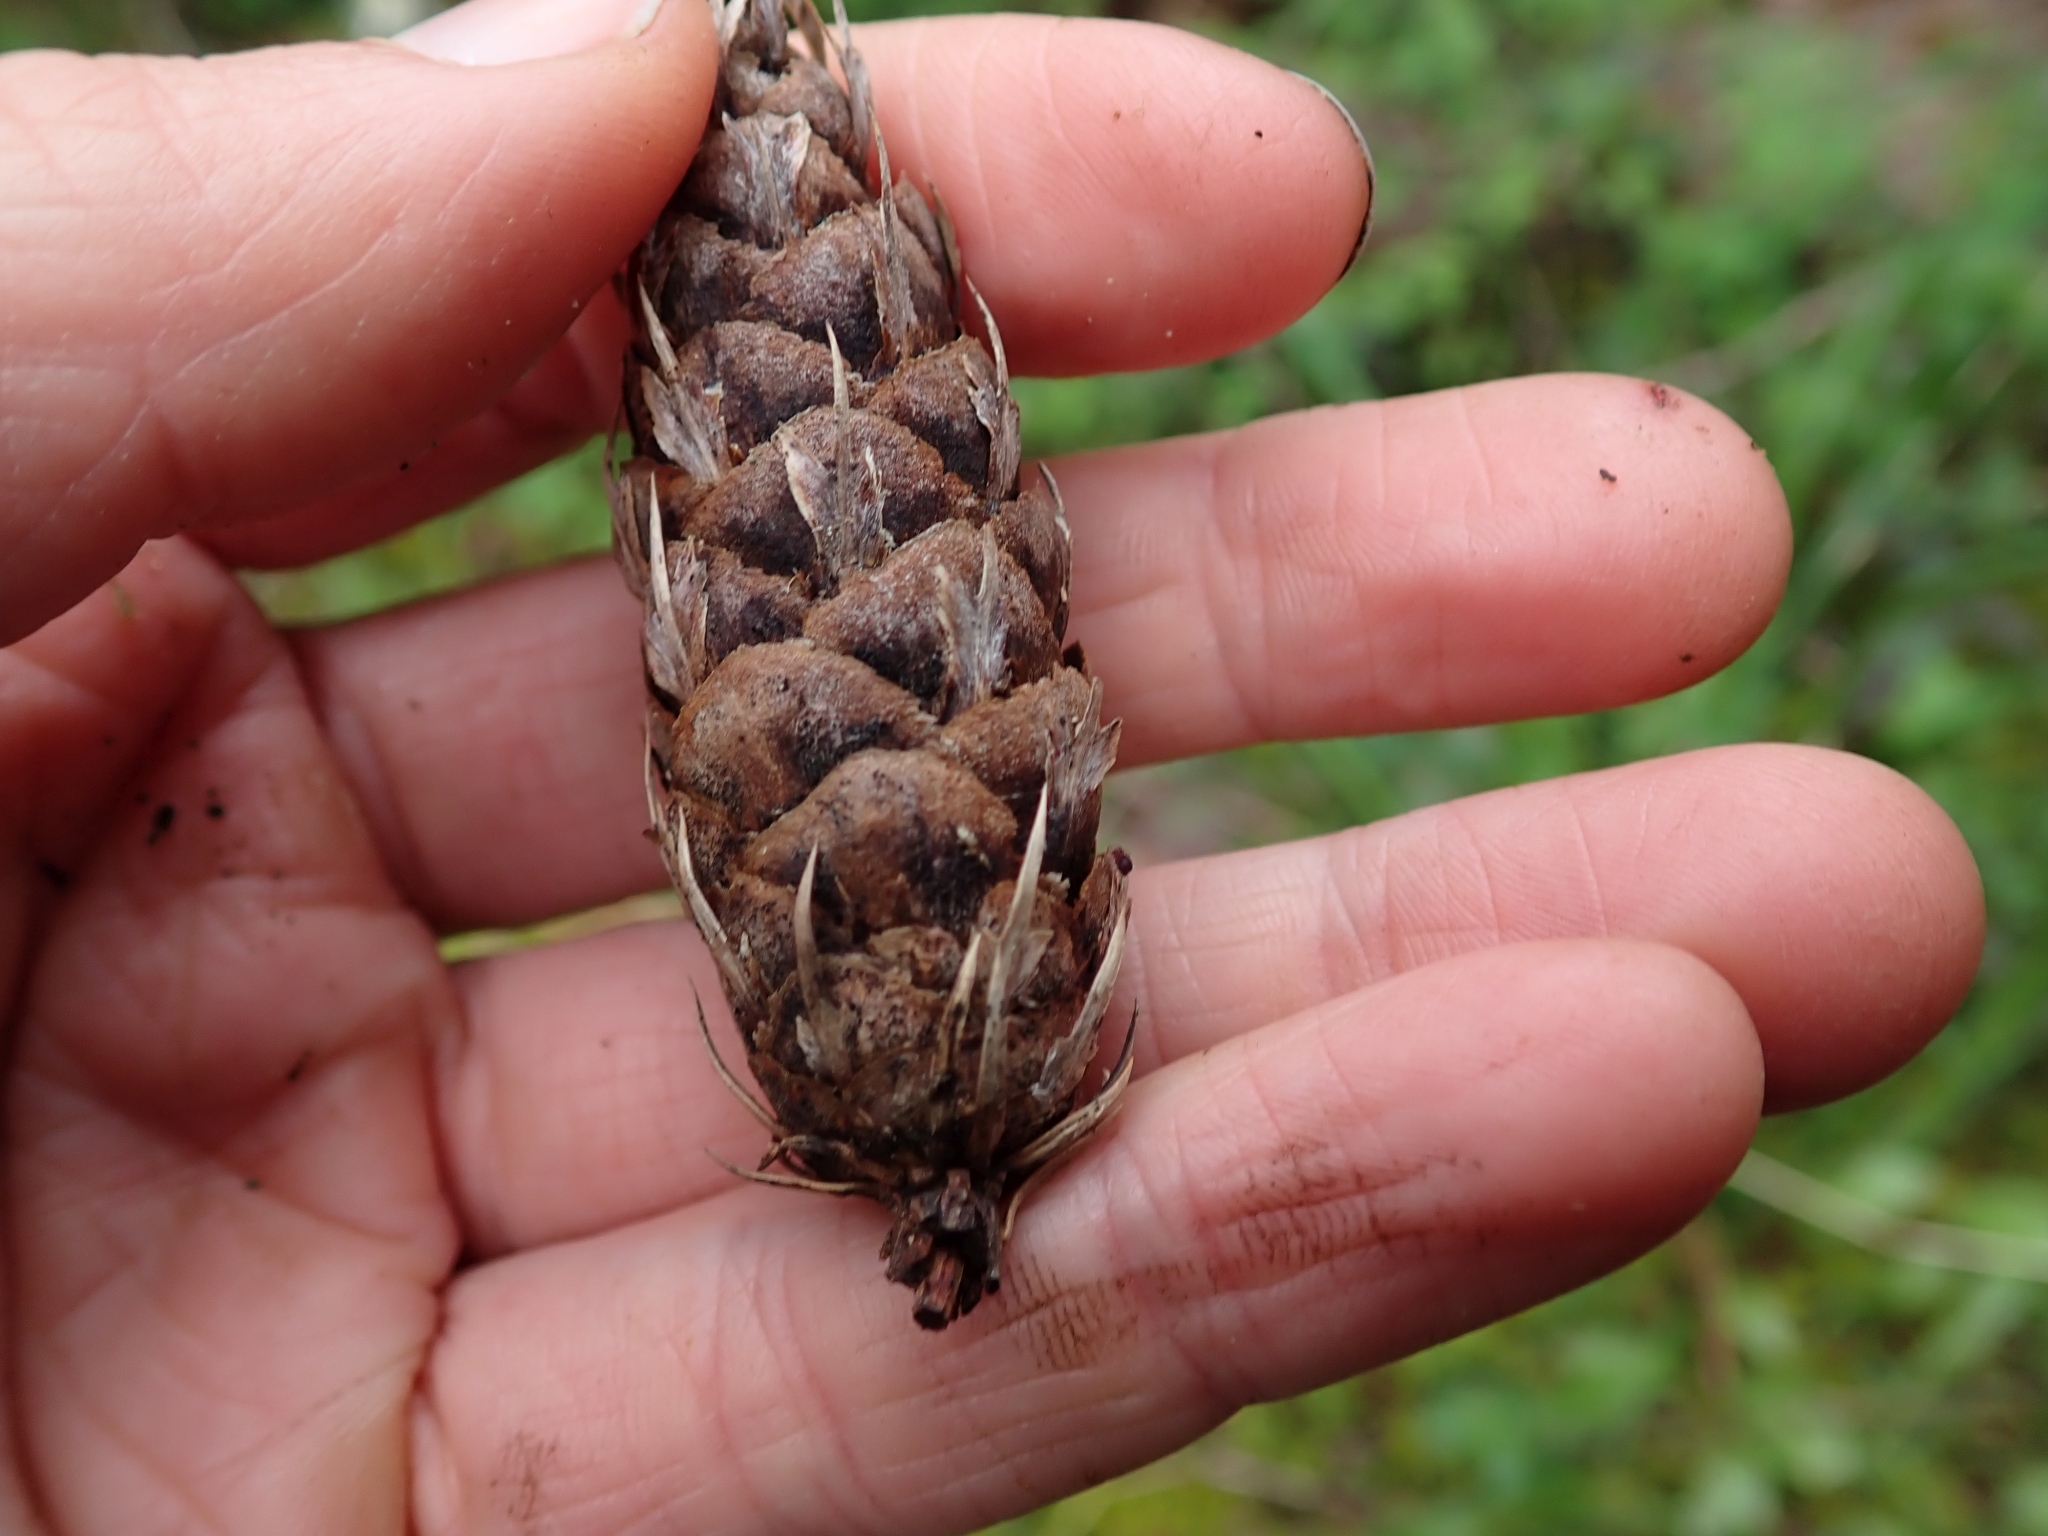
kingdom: Plantae
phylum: Tracheophyta
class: Pinopsida
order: Pinales
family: Pinaceae
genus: Pseudotsuga
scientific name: Pseudotsuga menziesii
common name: Douglas fir
